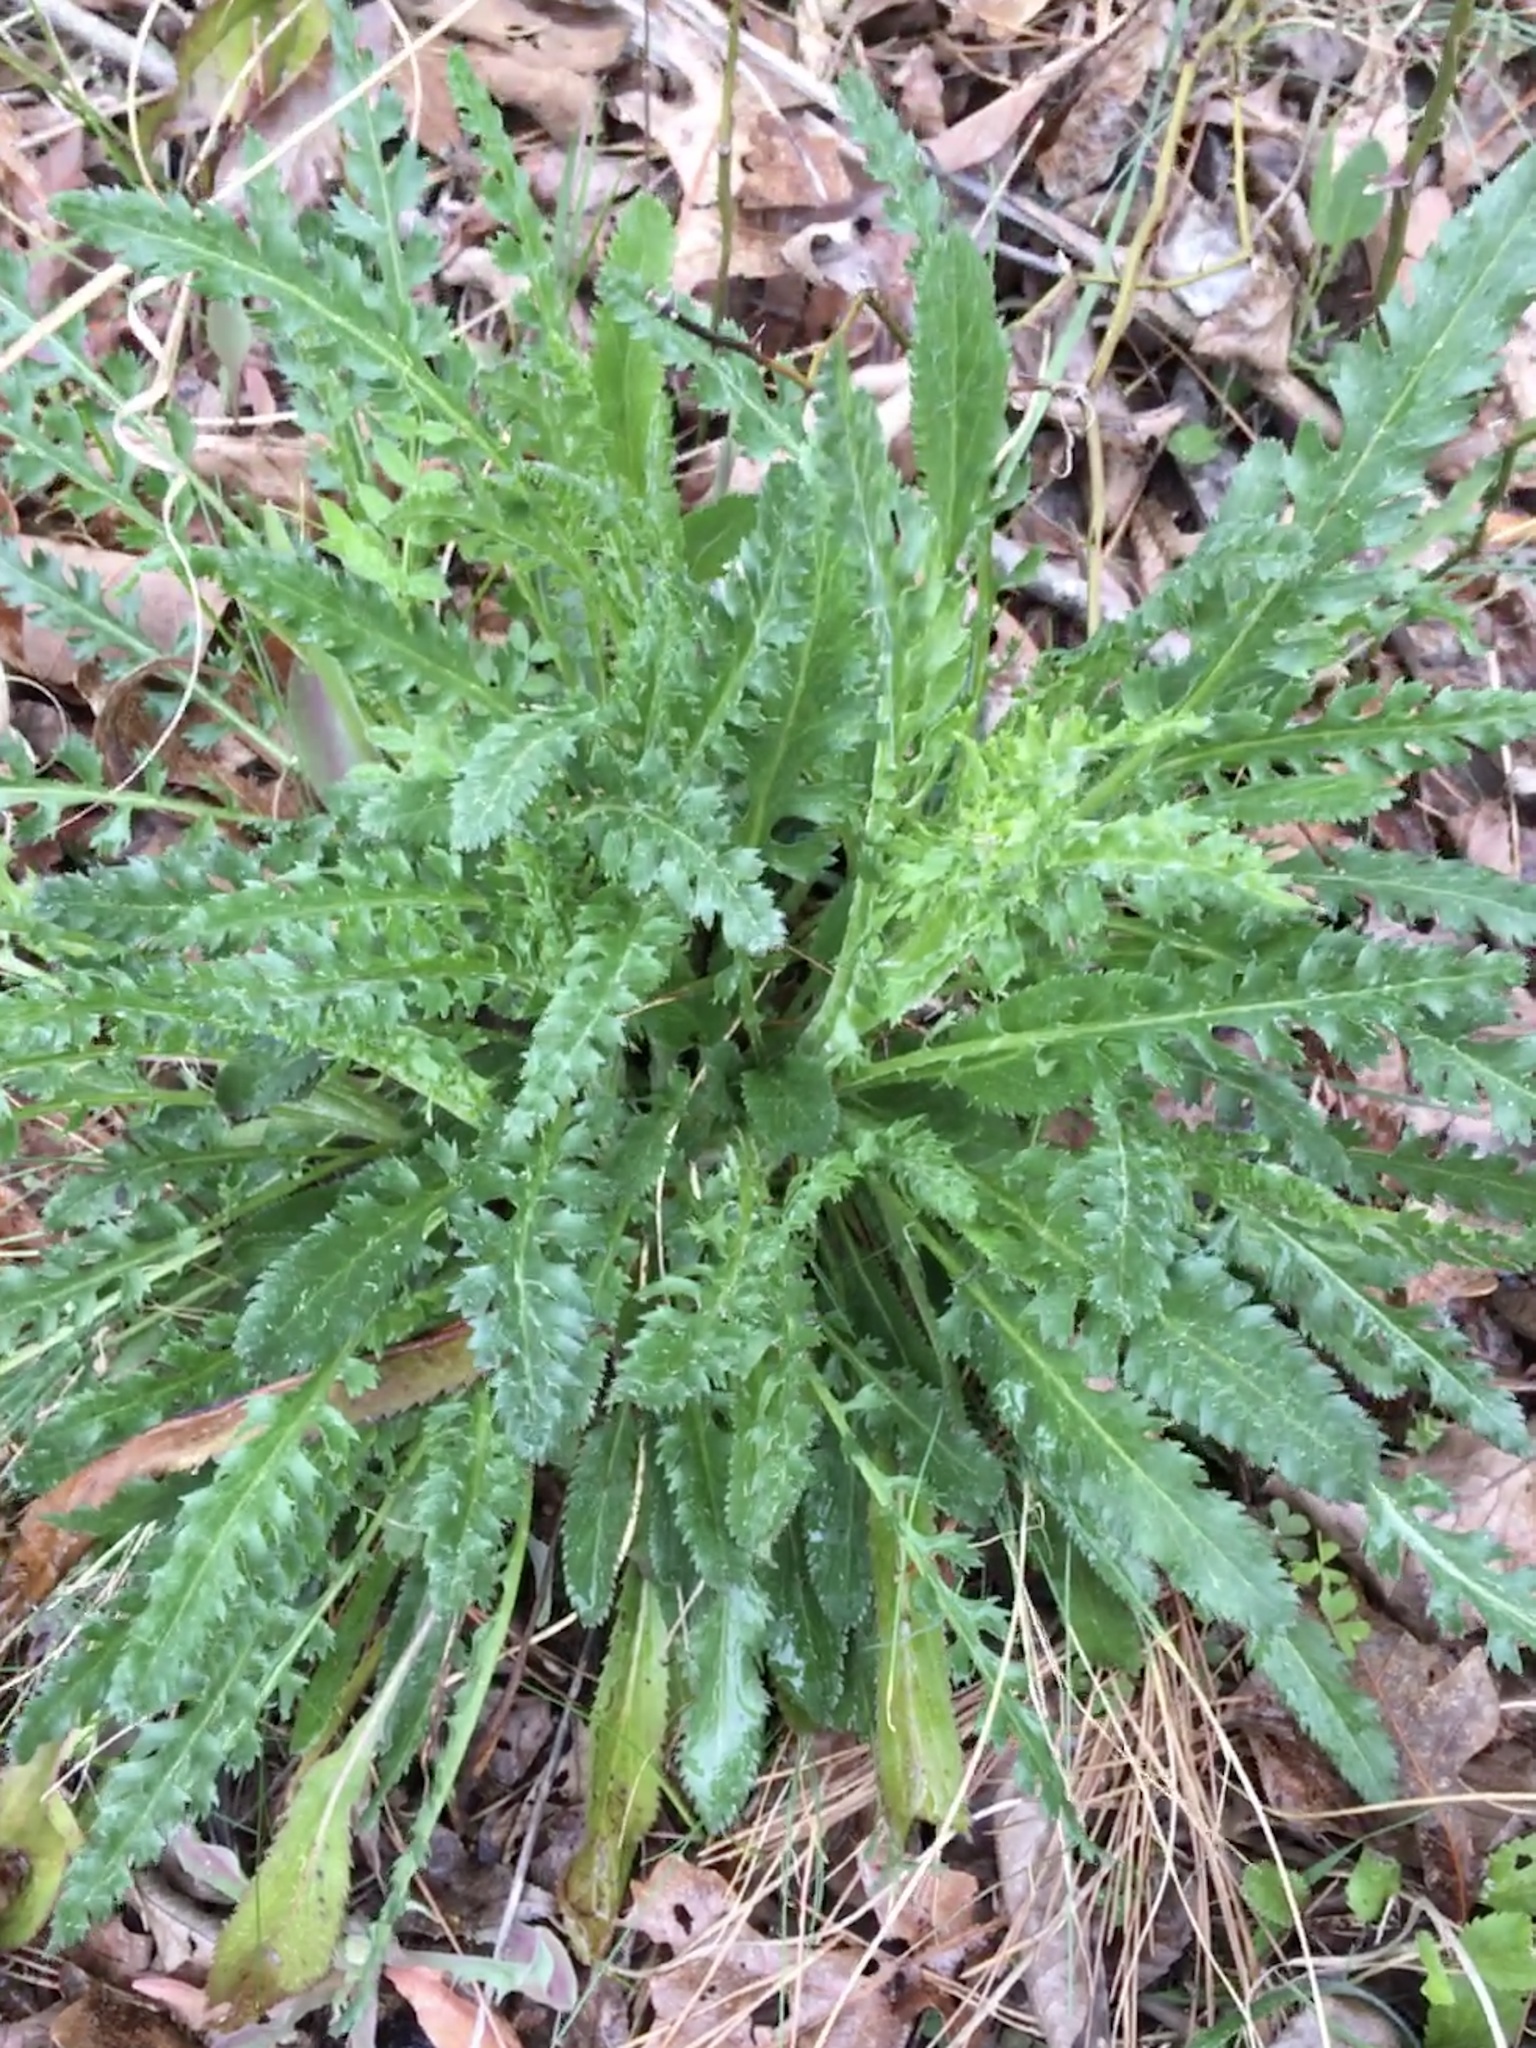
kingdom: Plantae
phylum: Tracheophyta
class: Magnoliopsida
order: Asterales
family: Asteraceae
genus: Packera
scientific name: Packera anonyma
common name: Small ragwort
